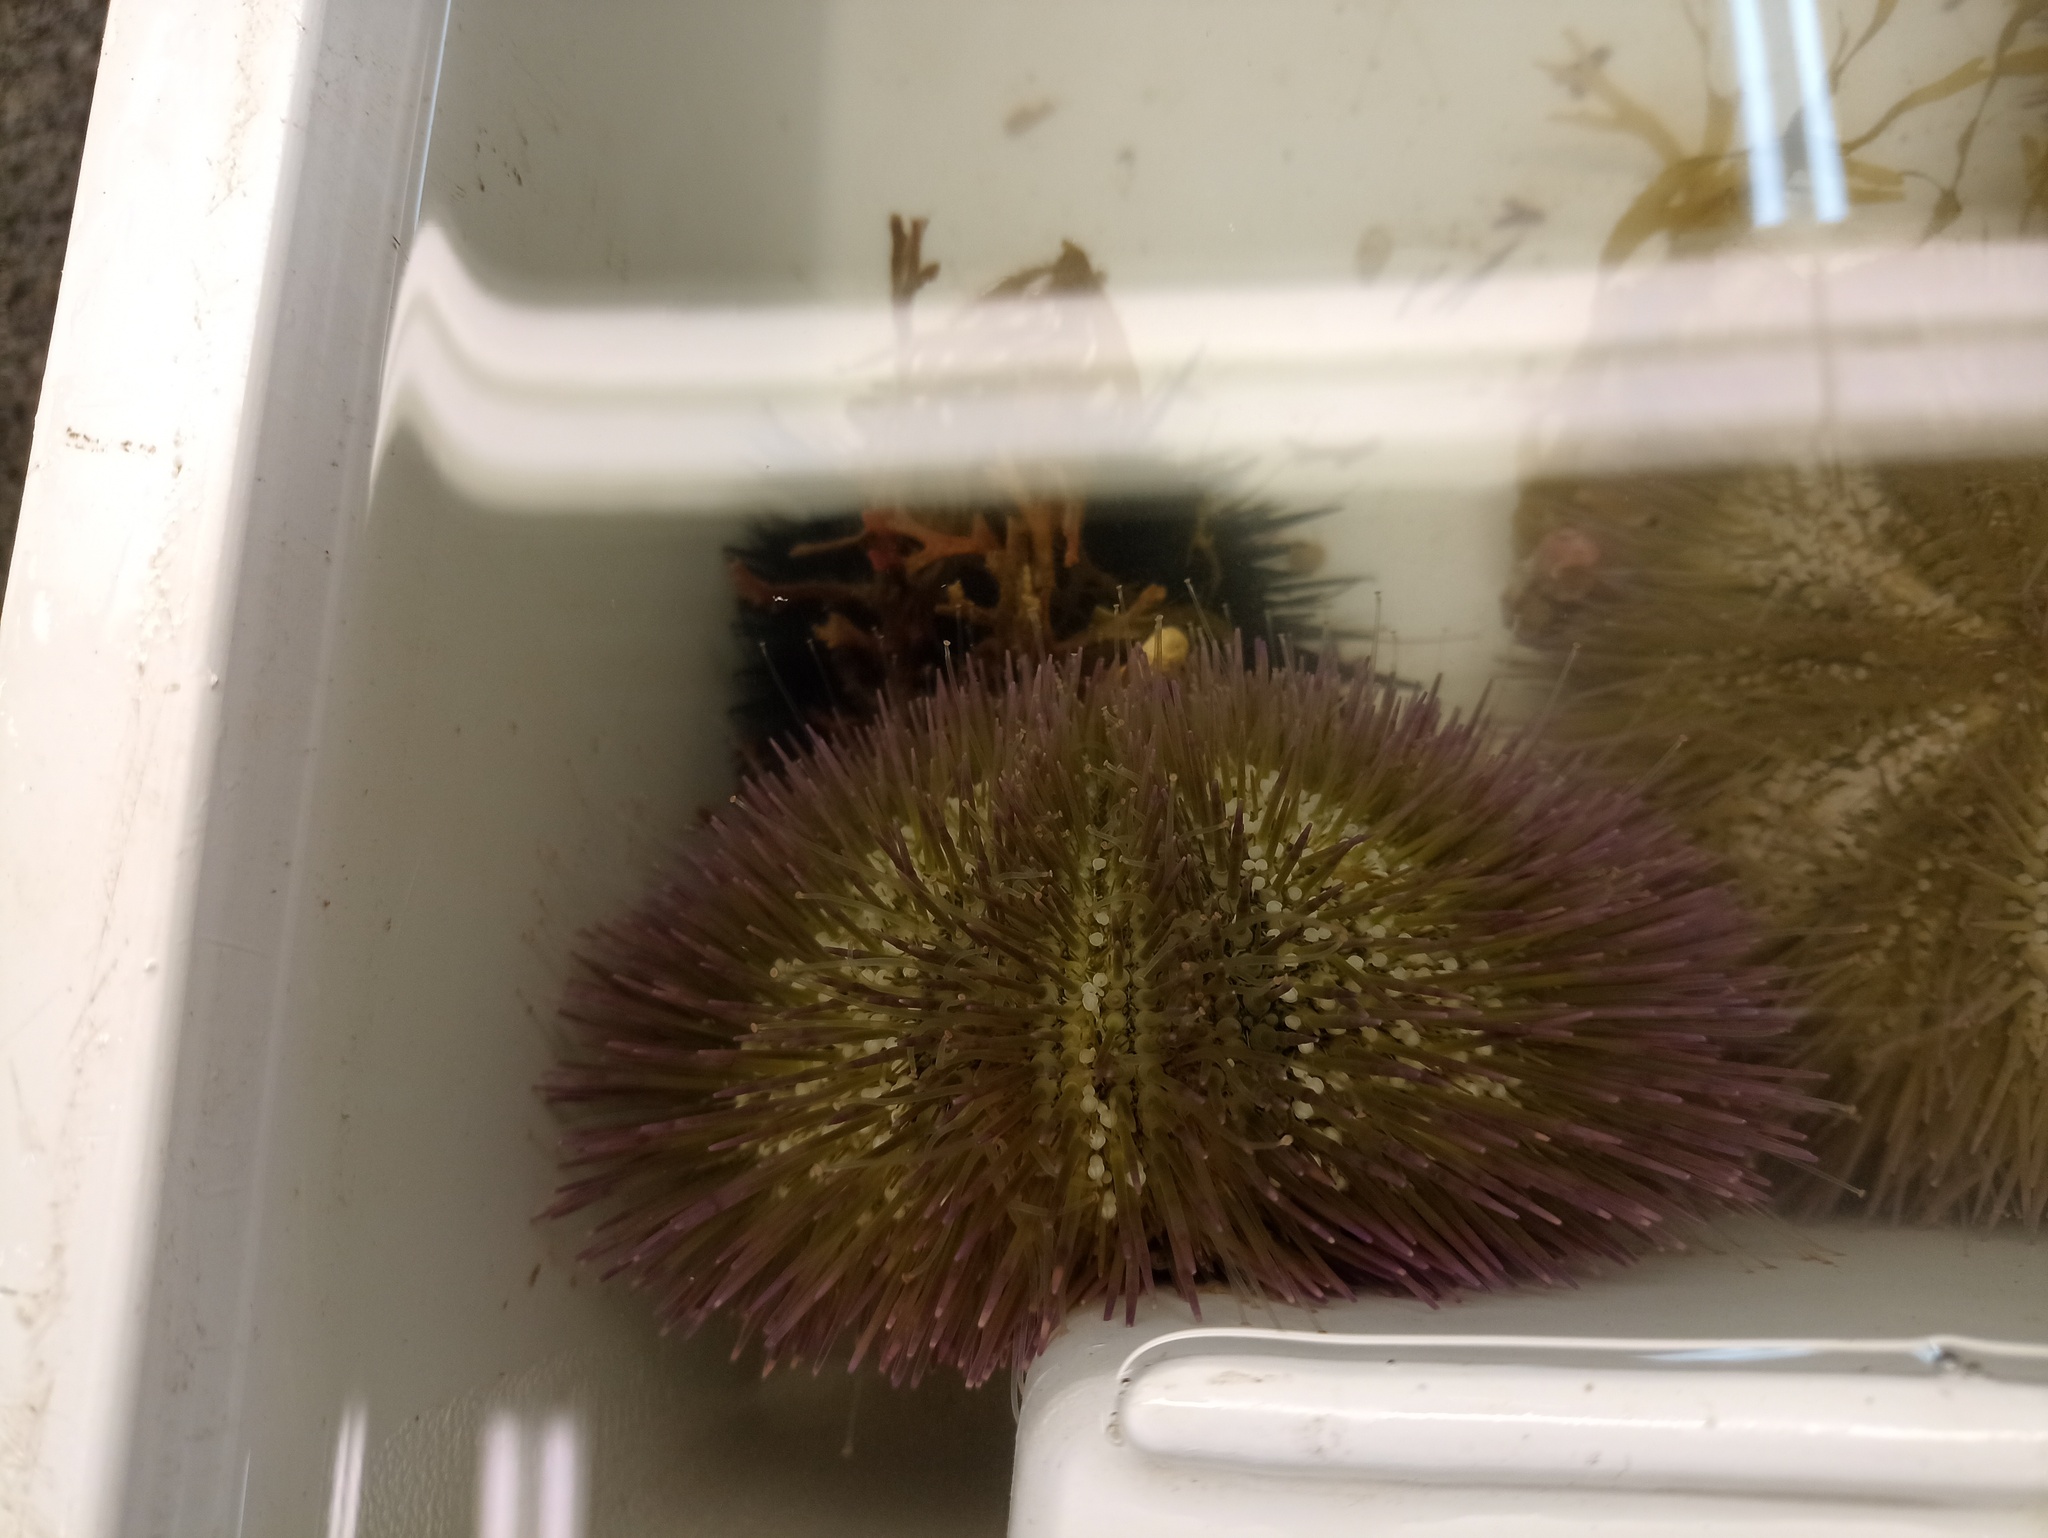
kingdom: Animalia
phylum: Echinodermata
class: Echinoidea
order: Camarodonta
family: Toxopneustidae
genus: Lytechinus
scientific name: Lytechinus variegatus
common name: Variegated urchin
